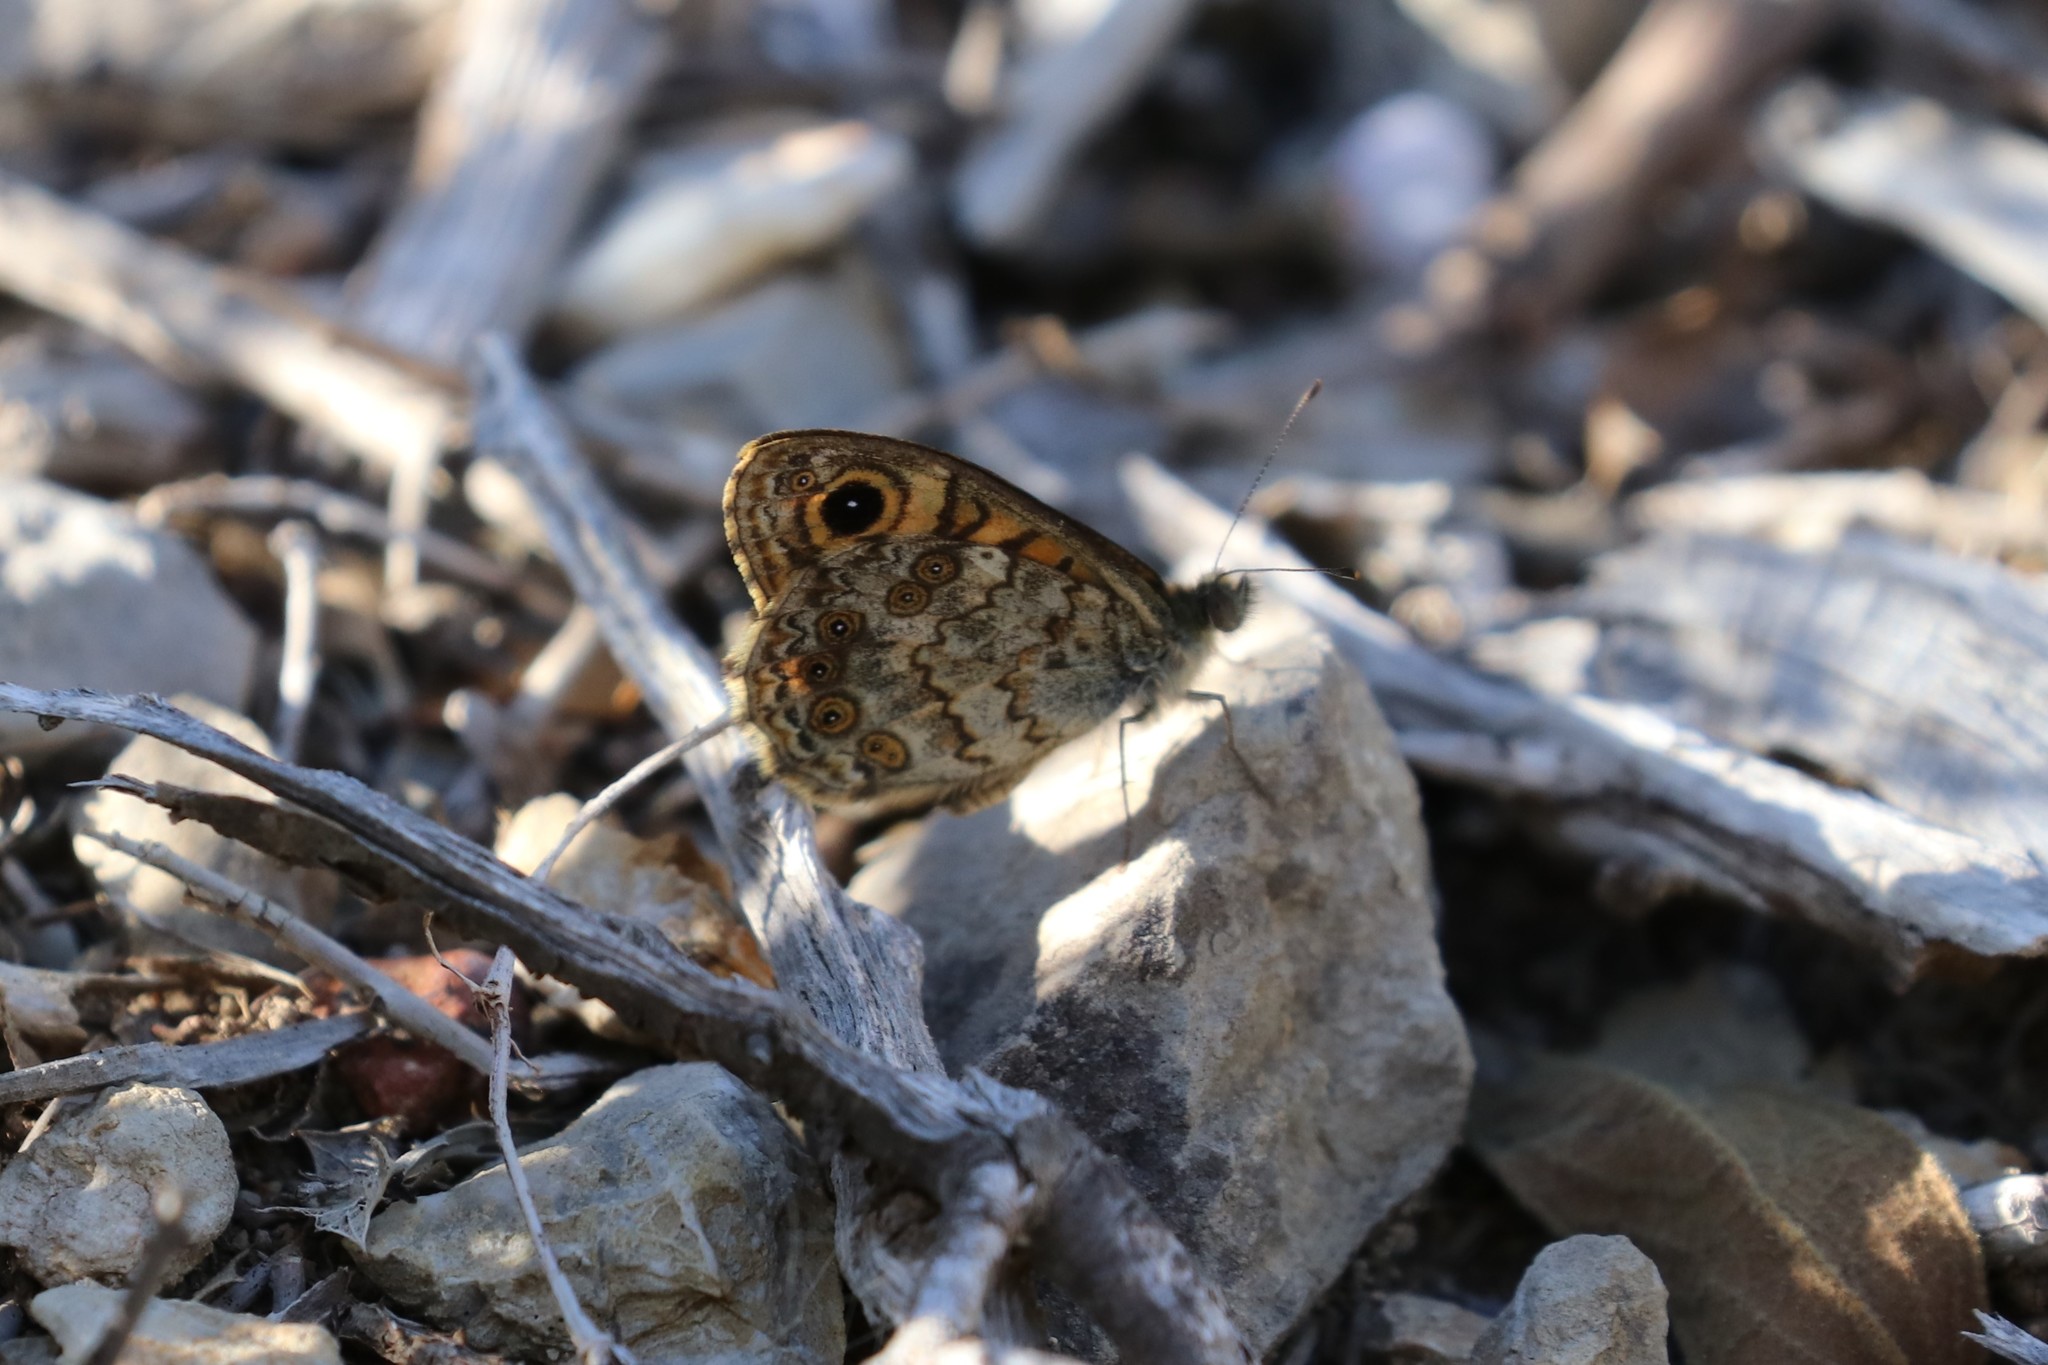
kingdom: Animalia
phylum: Arthropoda
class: Insecta
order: Lepidoptera
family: Nymphalidae
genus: Pararge
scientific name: Pararge Lasiommata megera
